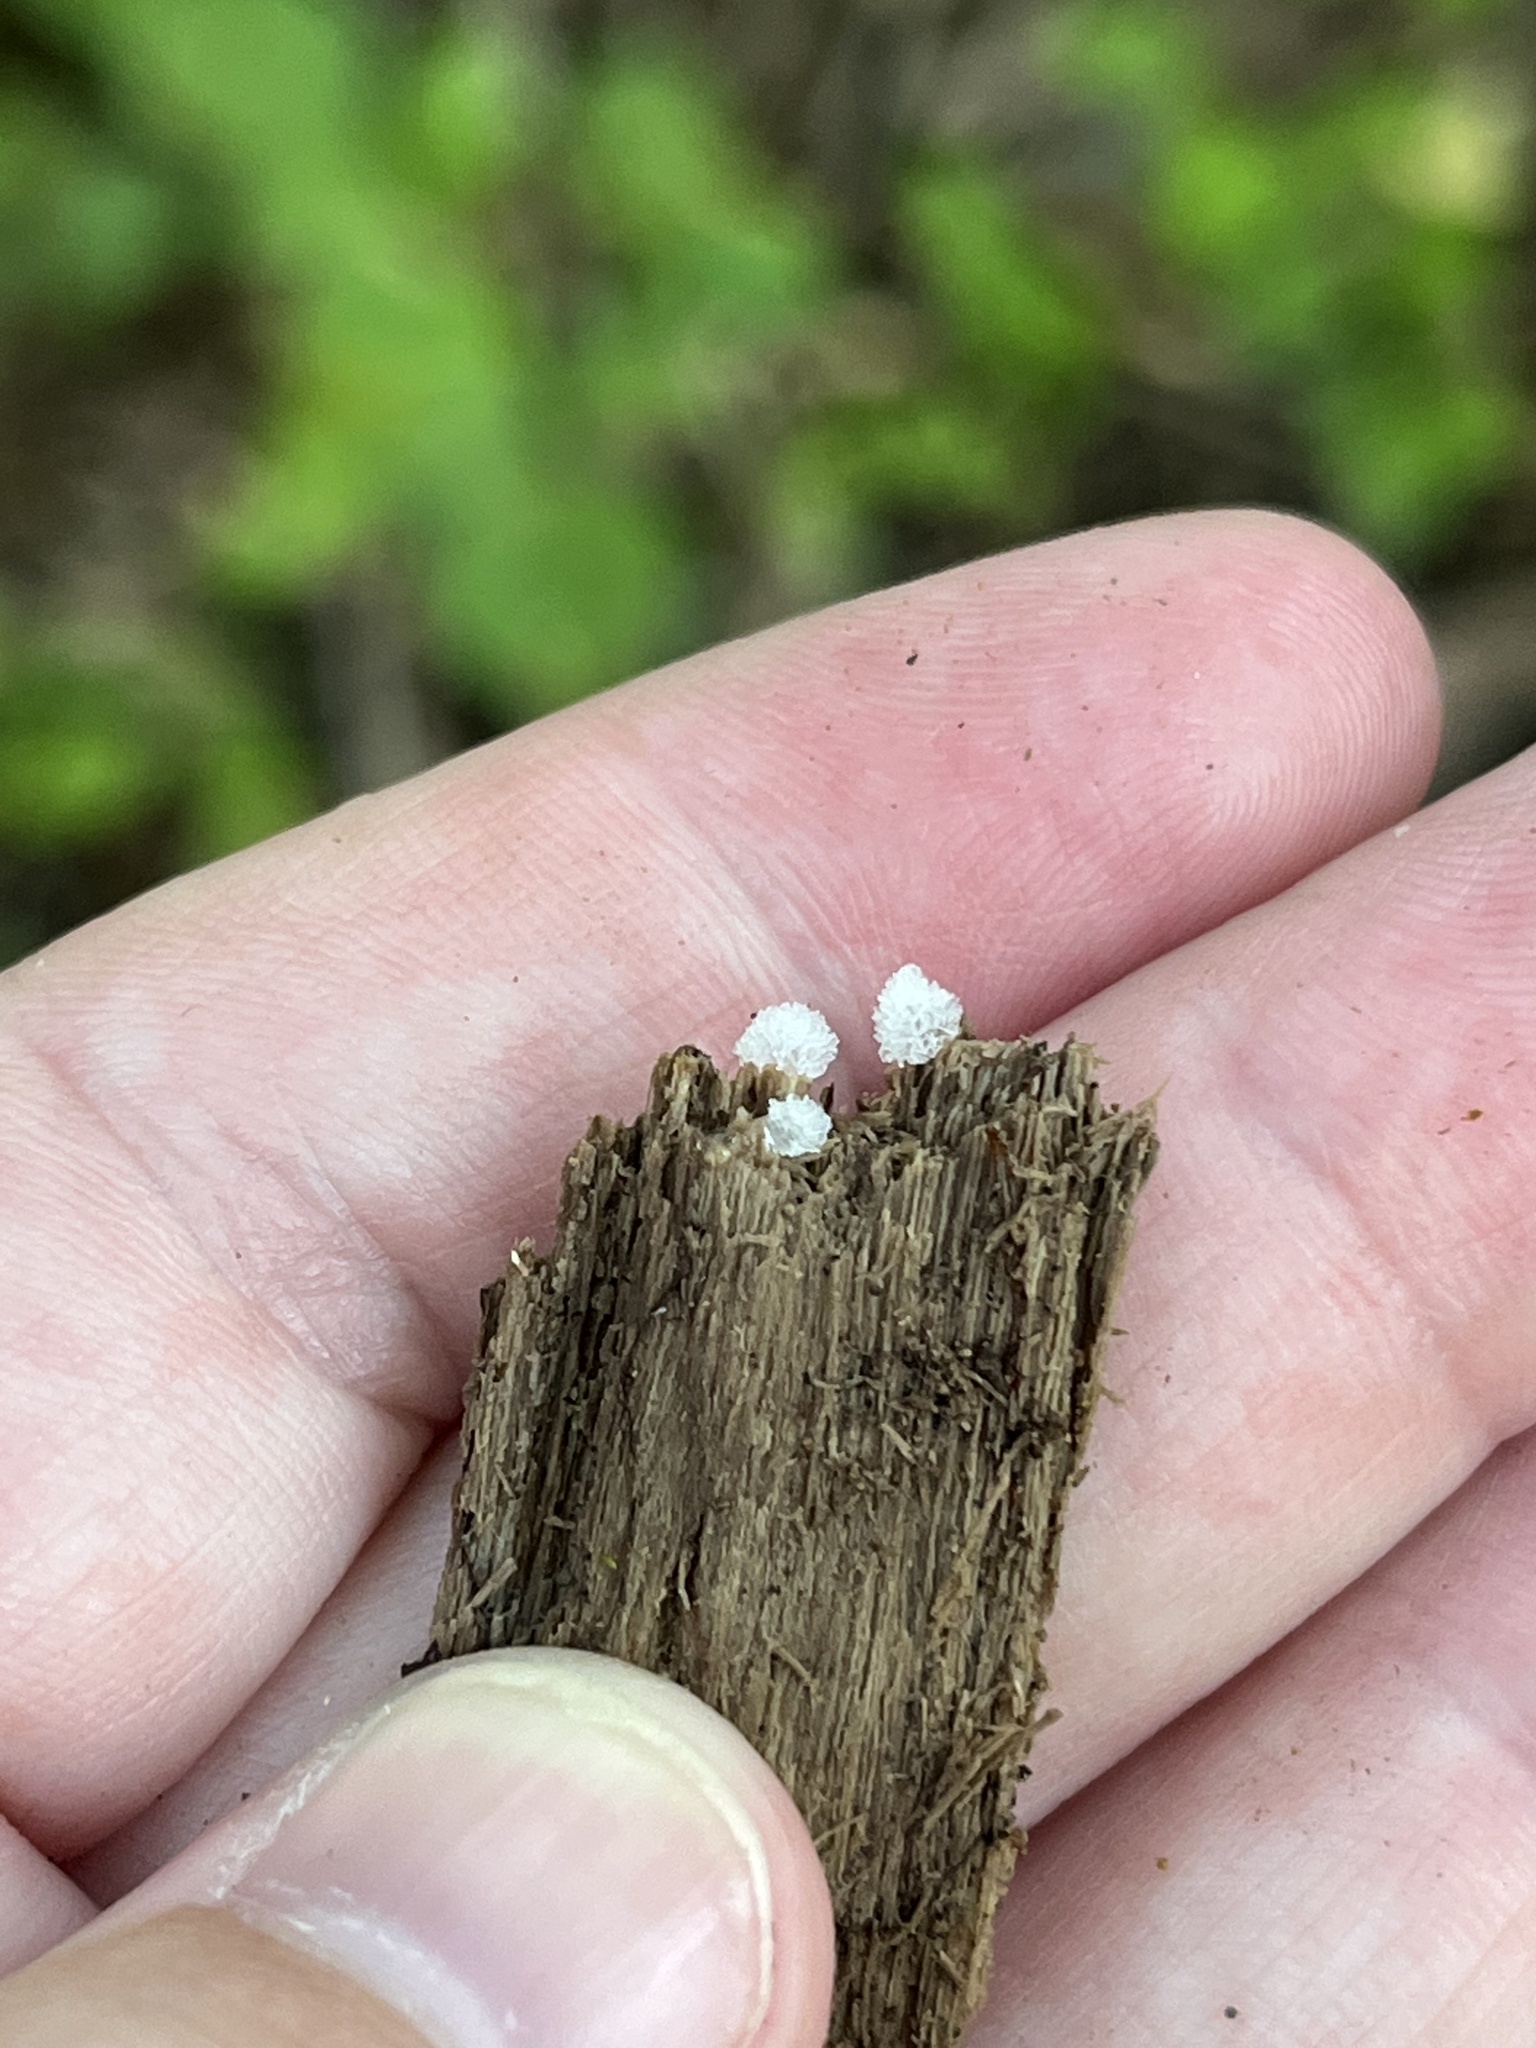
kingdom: Protozoa
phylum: Mycetozoa
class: Protosteliomycetes
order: Ceratiomyxales
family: Ceratiomyxaceae
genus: Ceratiomyxa
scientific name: Ceratiomyxa fruticulosa
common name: Honeycomb coral slime mold
